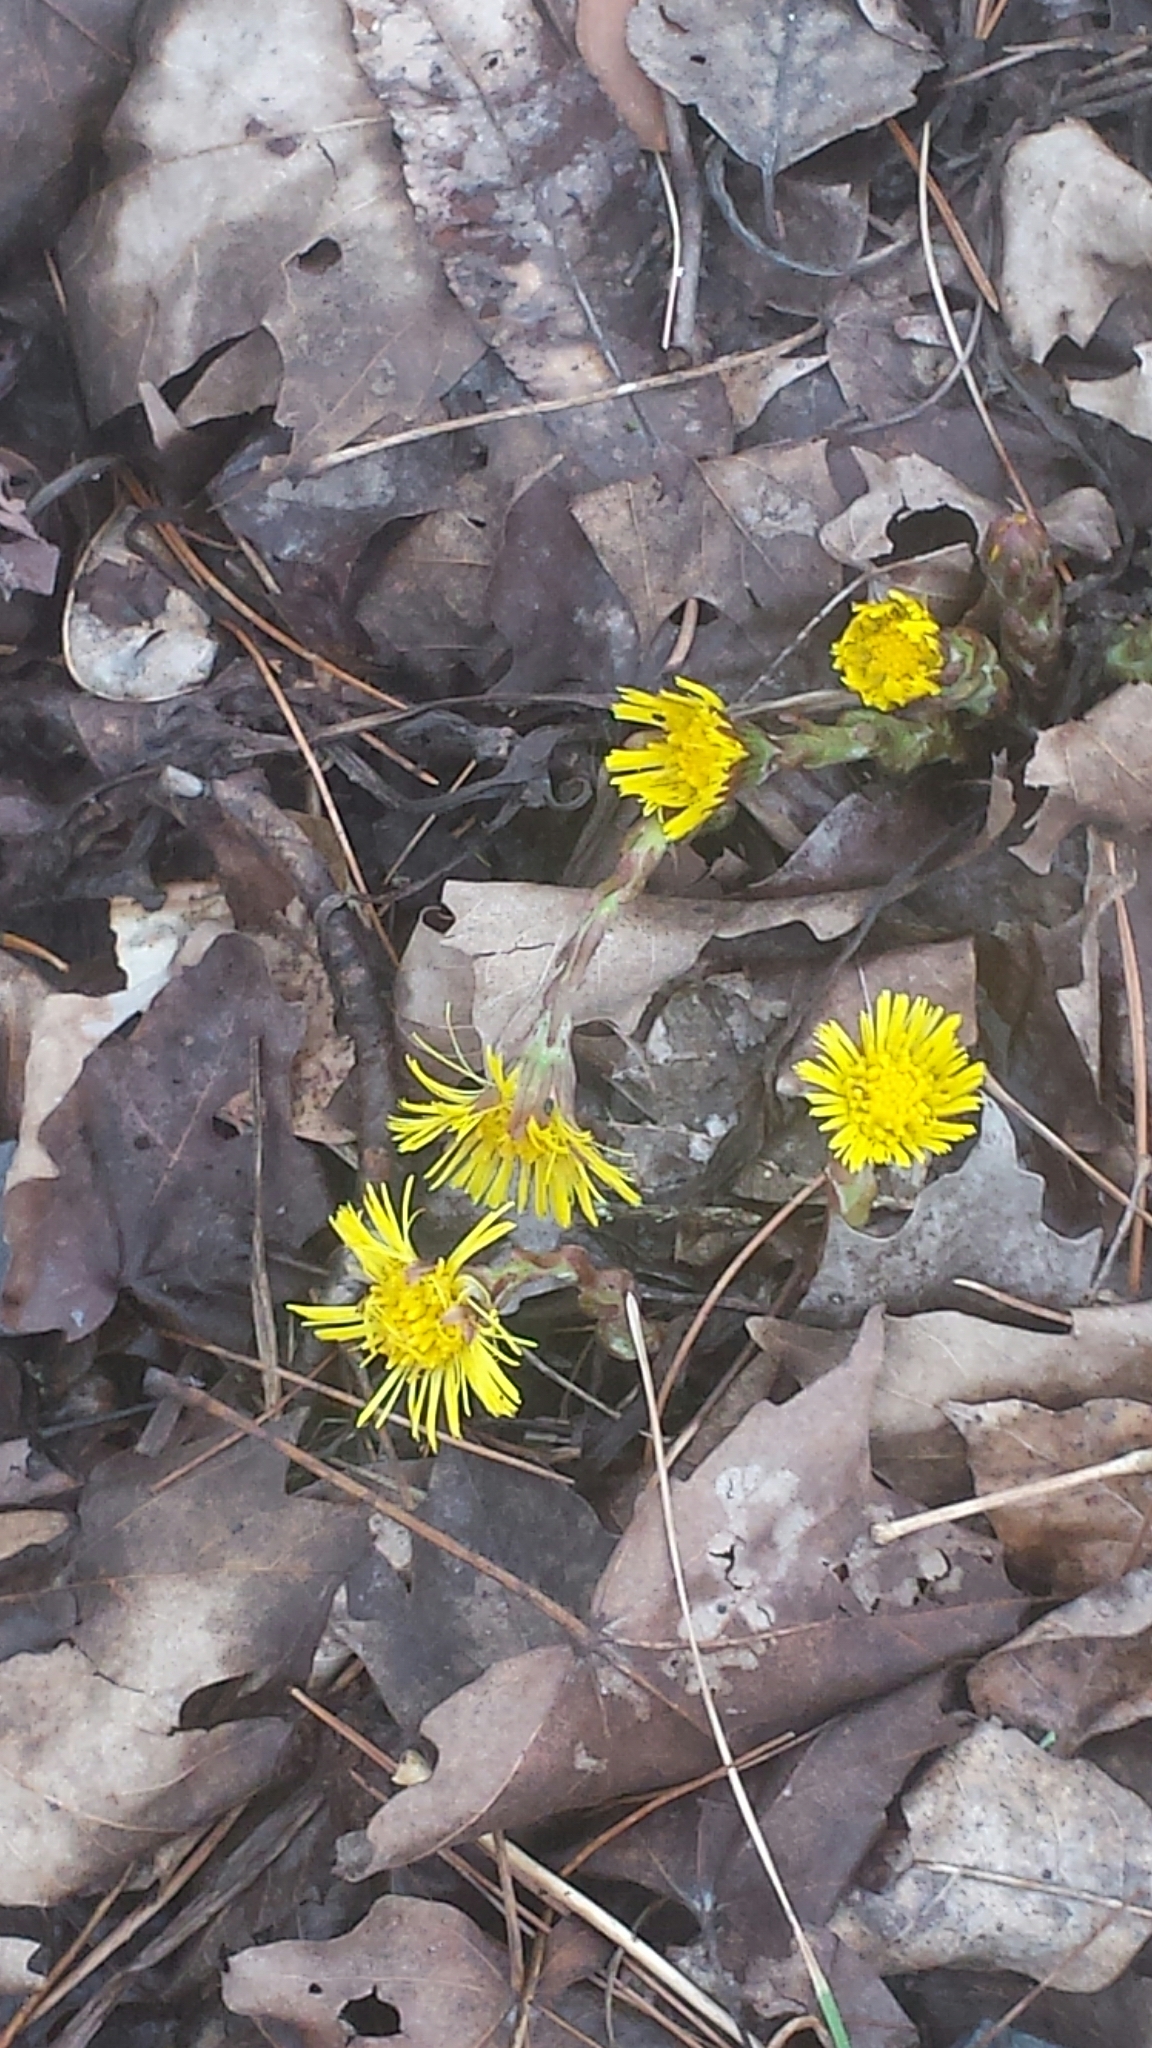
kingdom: Plantae
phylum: Tracheophyta
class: Magnoliopsida
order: Asterales
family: Asteraceae
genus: Tussilago
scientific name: Tussilago farfara
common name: Coltsfoot
